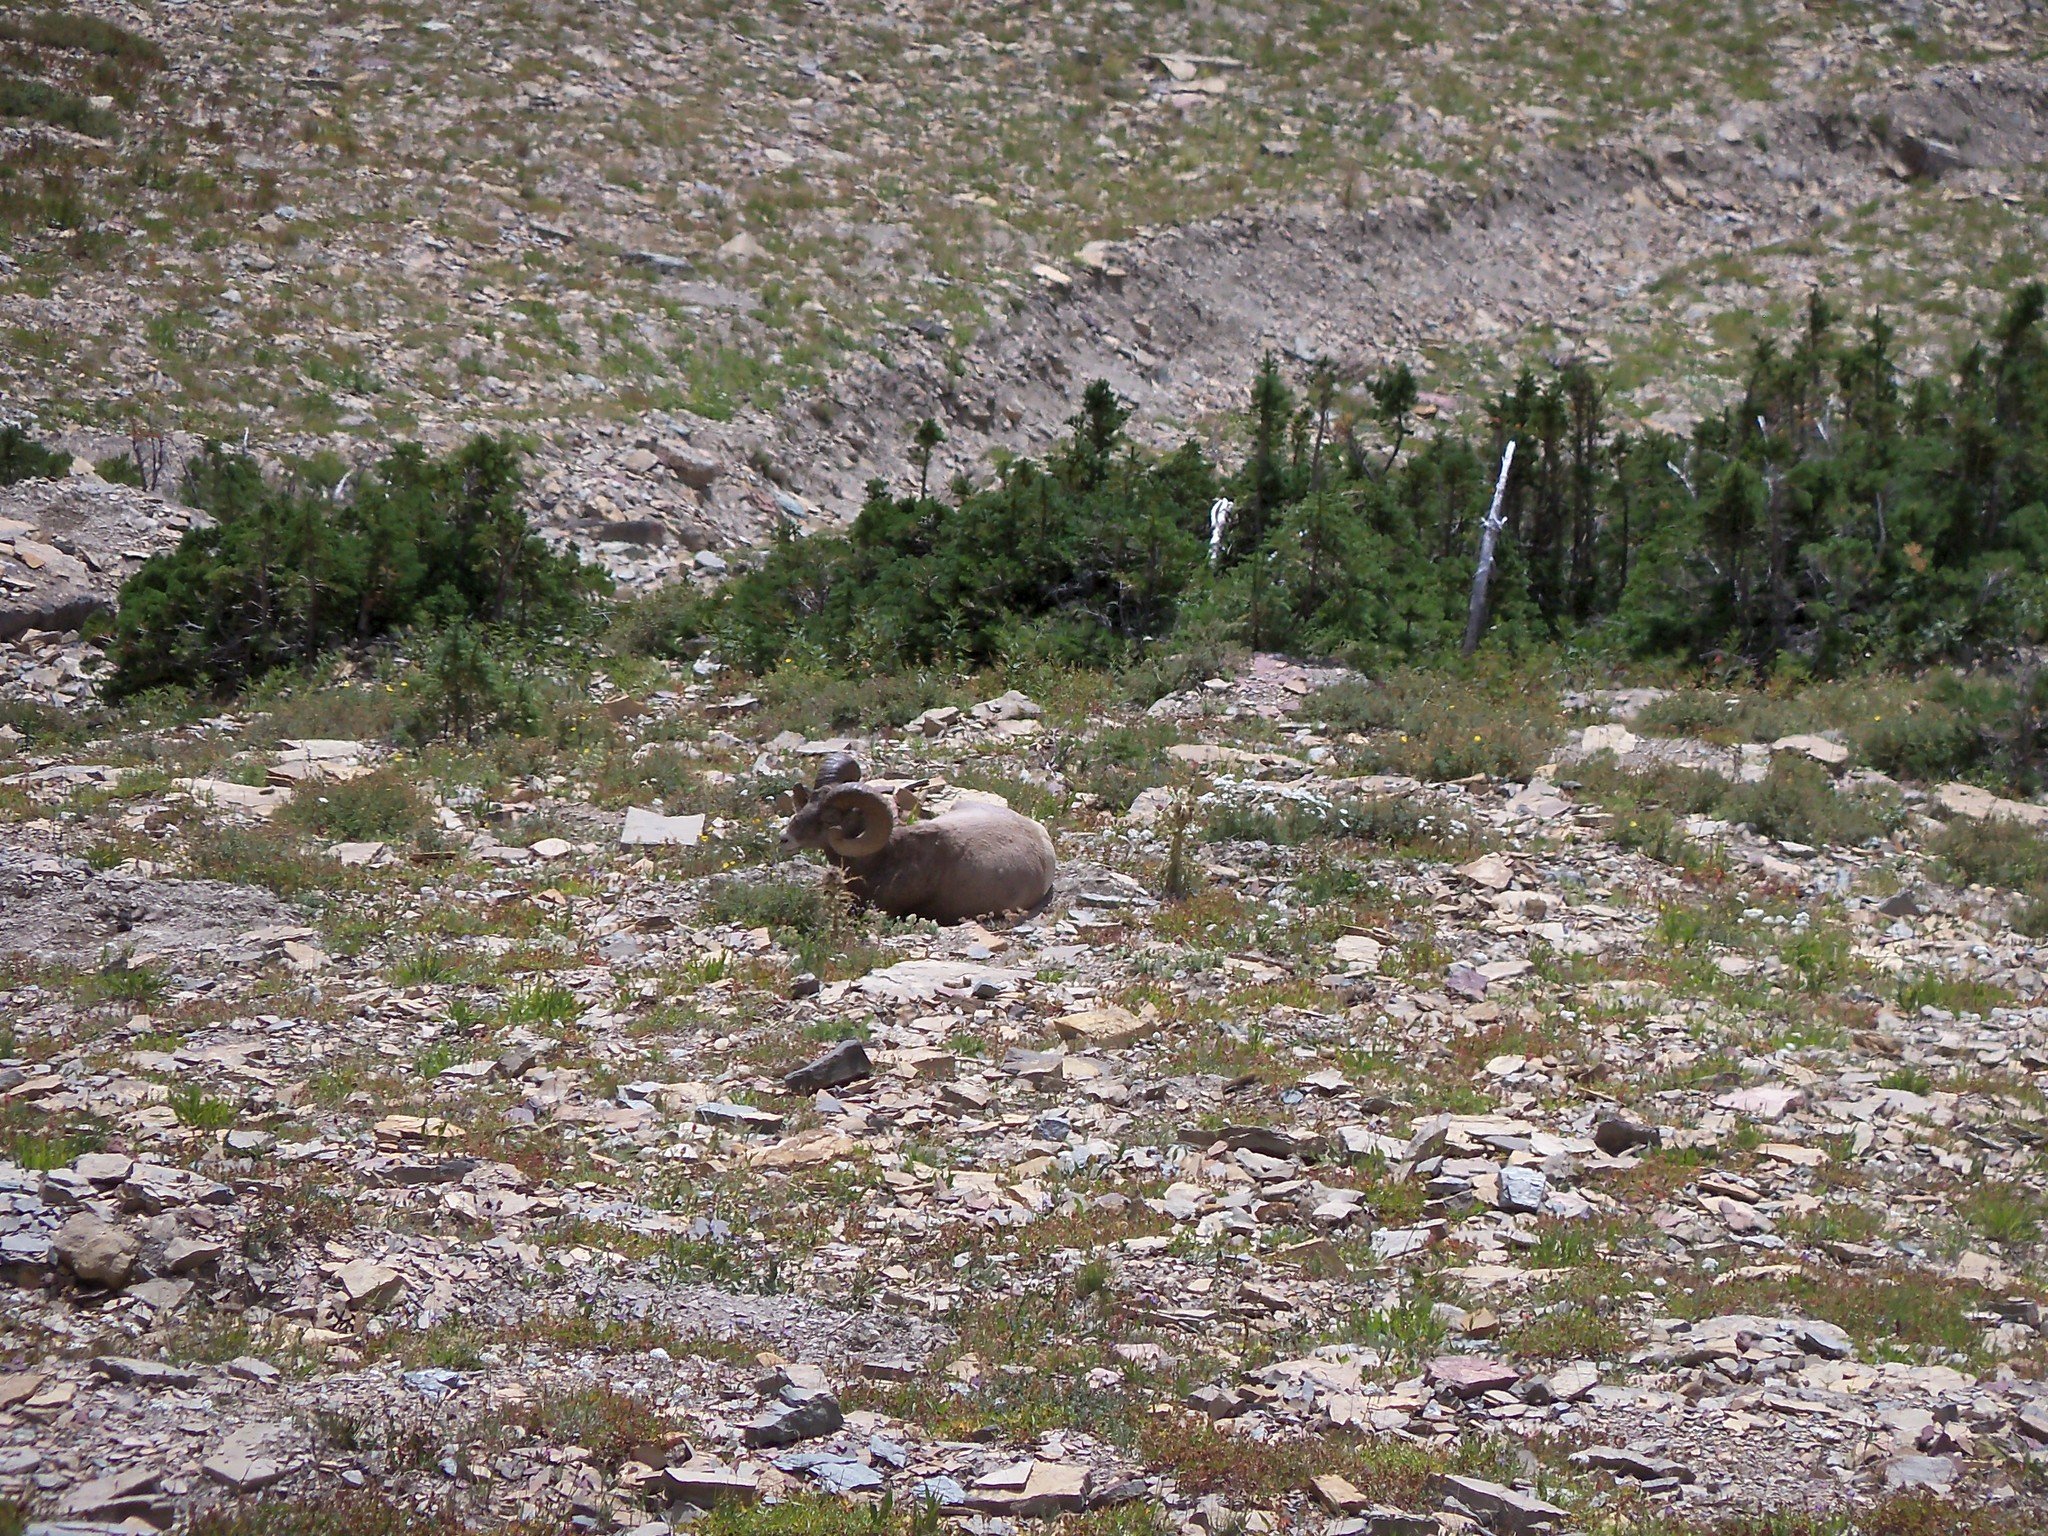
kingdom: Animalia
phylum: Chordata
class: Mammalia
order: Artiodactyla
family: Bovidae
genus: Ovis
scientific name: Ovis canadensis
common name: Bighorn sheep
